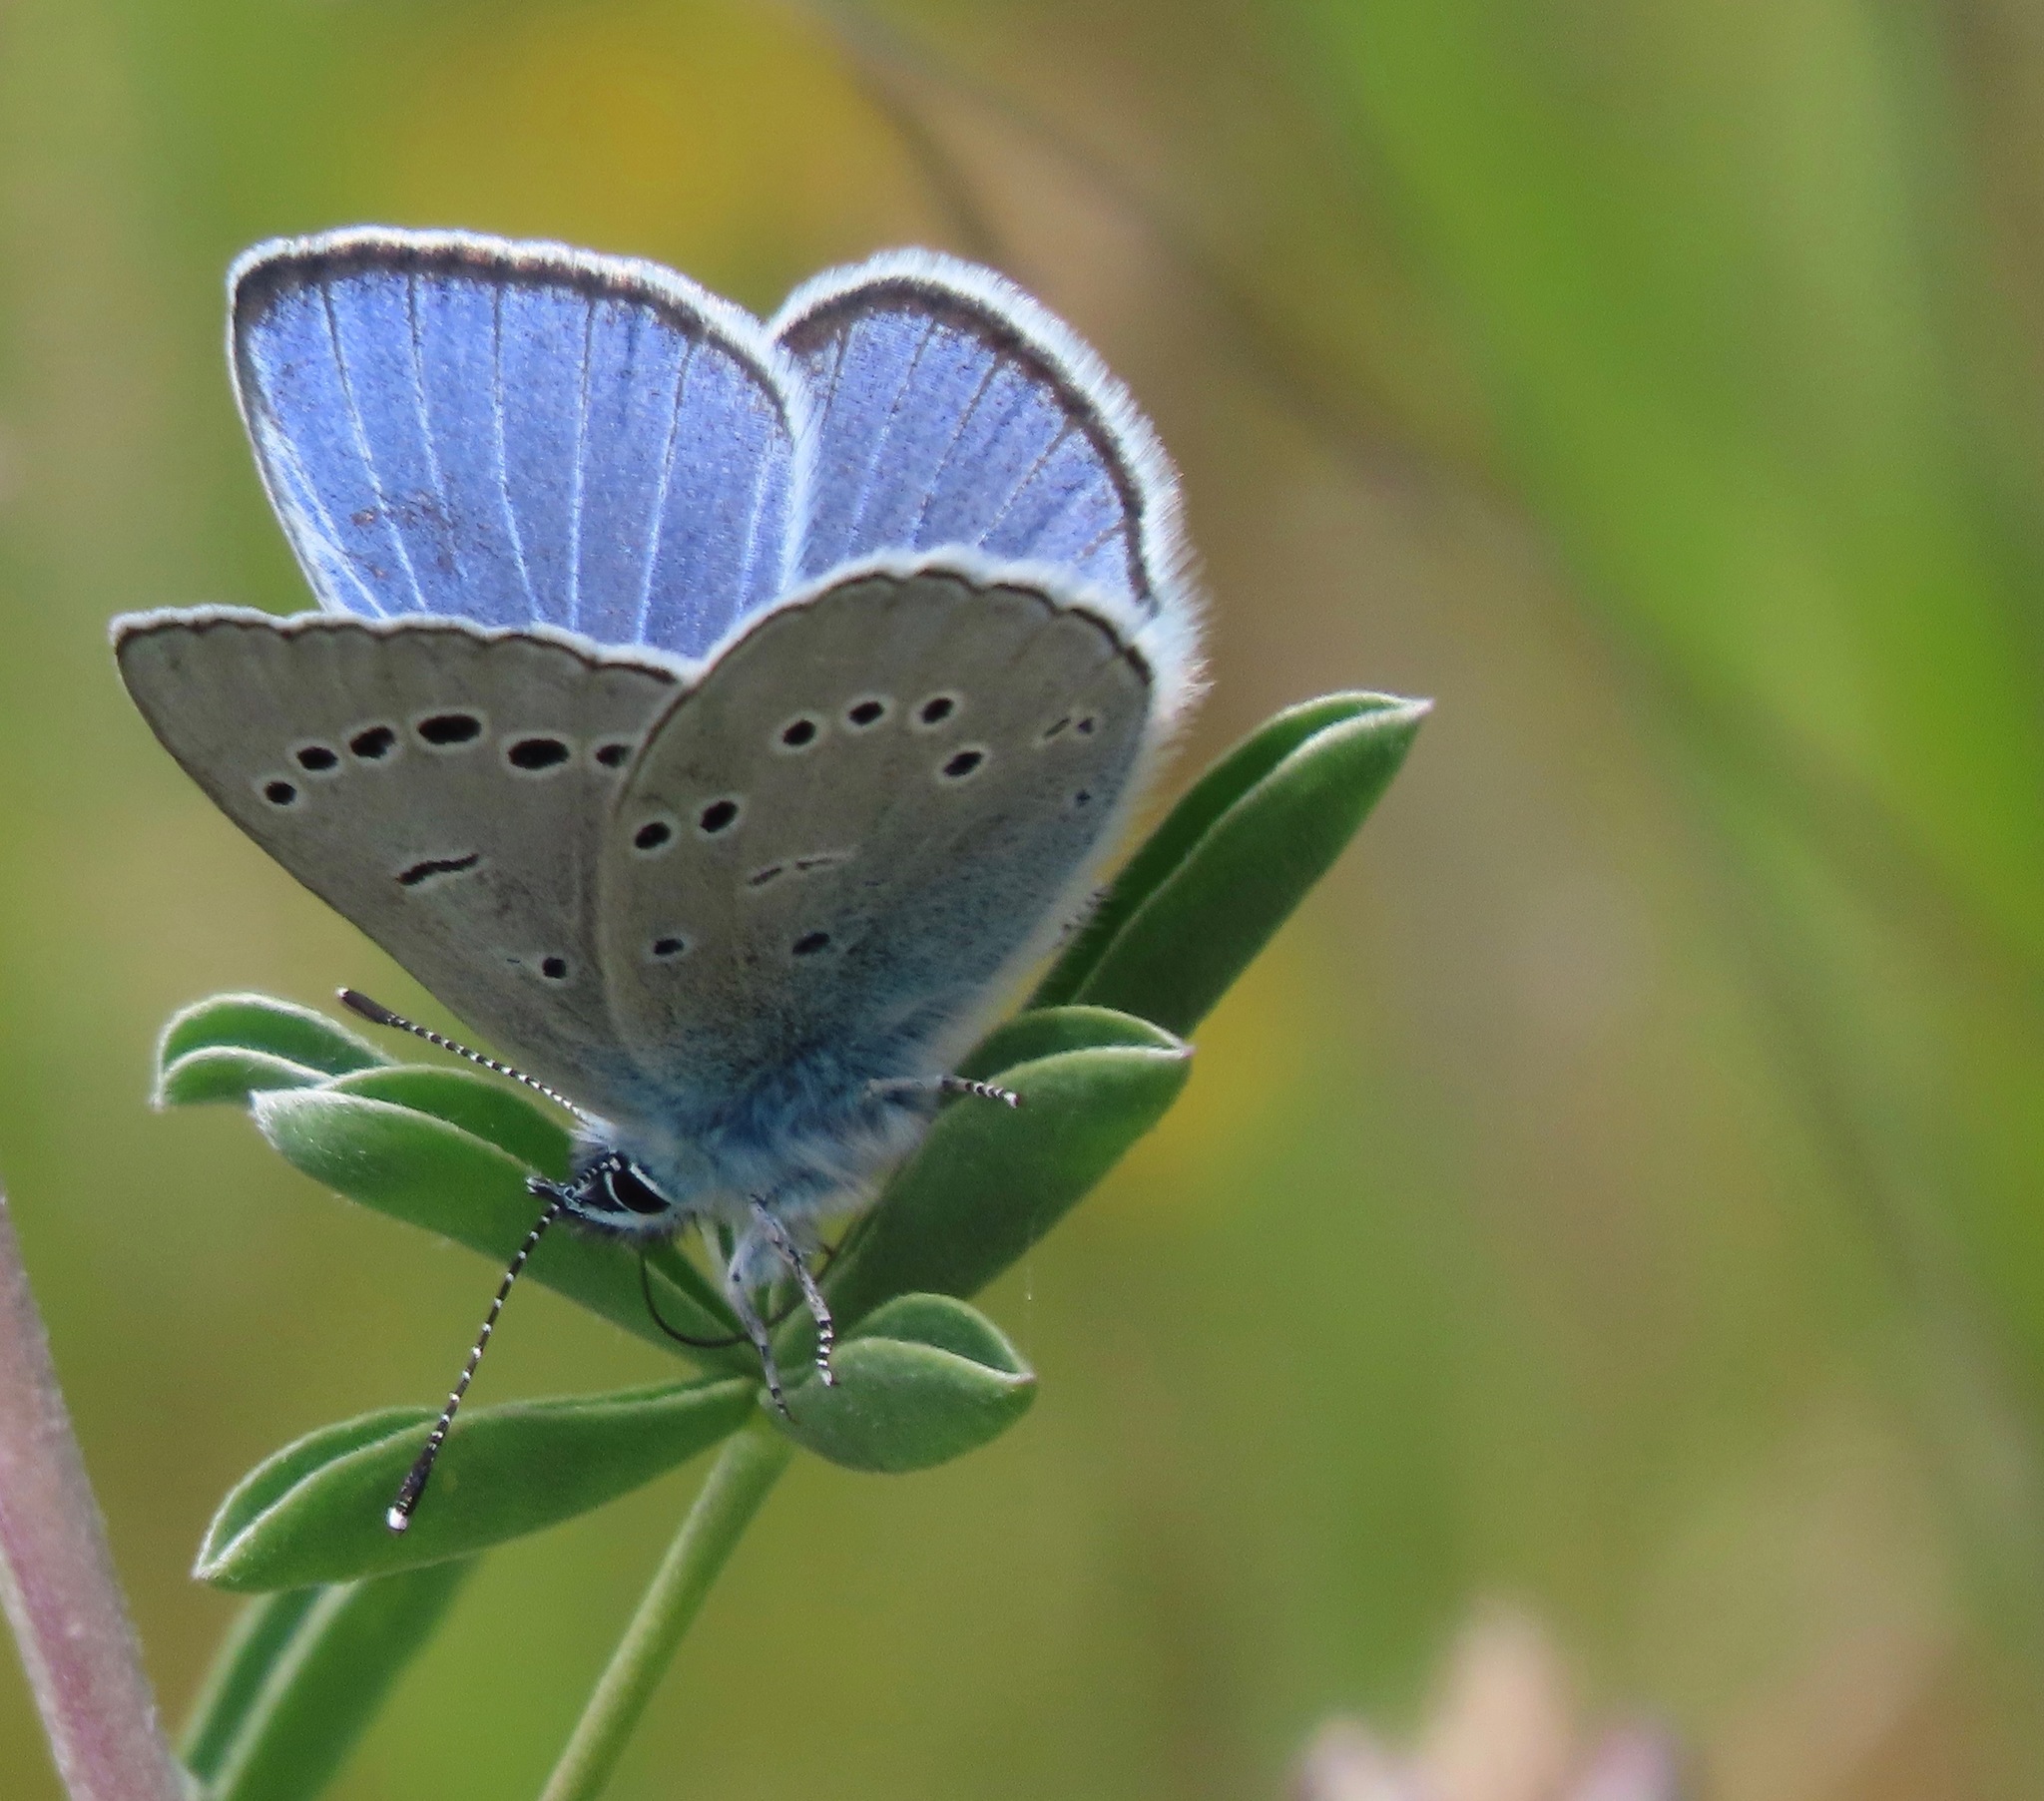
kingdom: Animalia
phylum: Arthropoda
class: Insecta
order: Lepidoptera
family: Lycaenidae
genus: Glaucopsyche
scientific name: Glaucopsyche lygdamus
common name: Silvery blue
